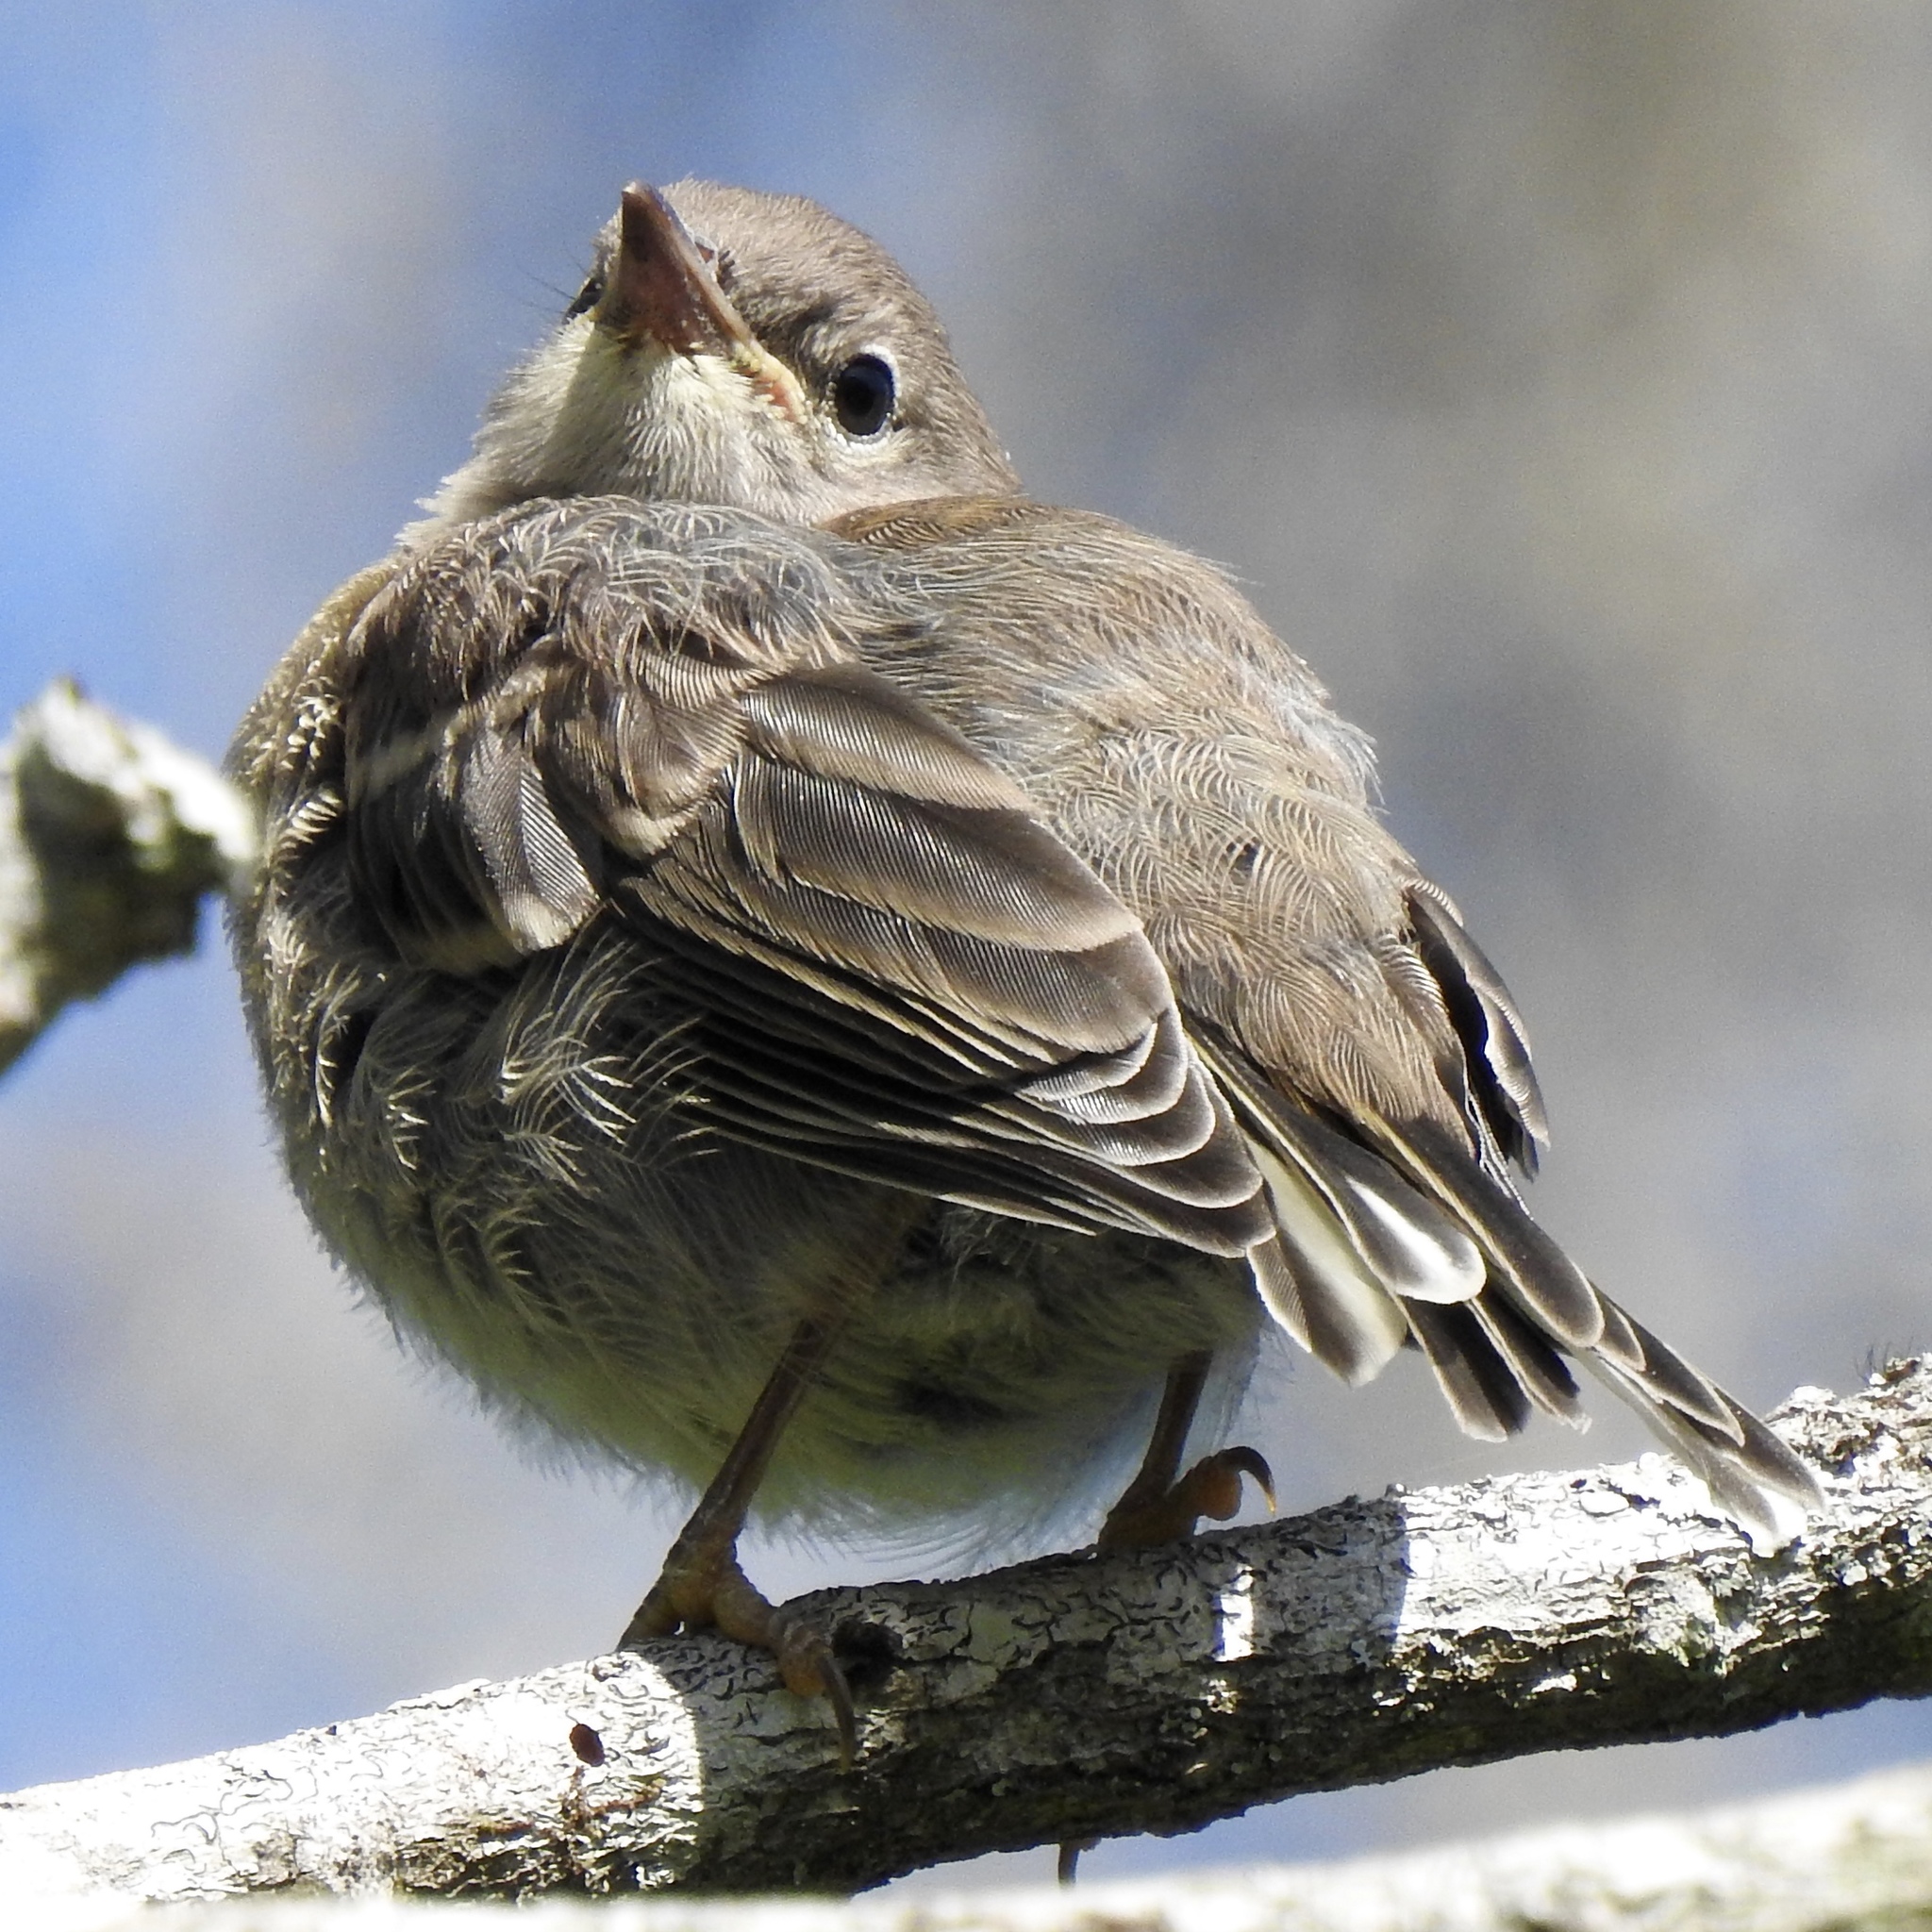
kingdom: Animalia
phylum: Chordata
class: Aves
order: Passeriformes
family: Parulidae
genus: Geothlypis
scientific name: Geothlypis trichas
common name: Common yellowthroat
